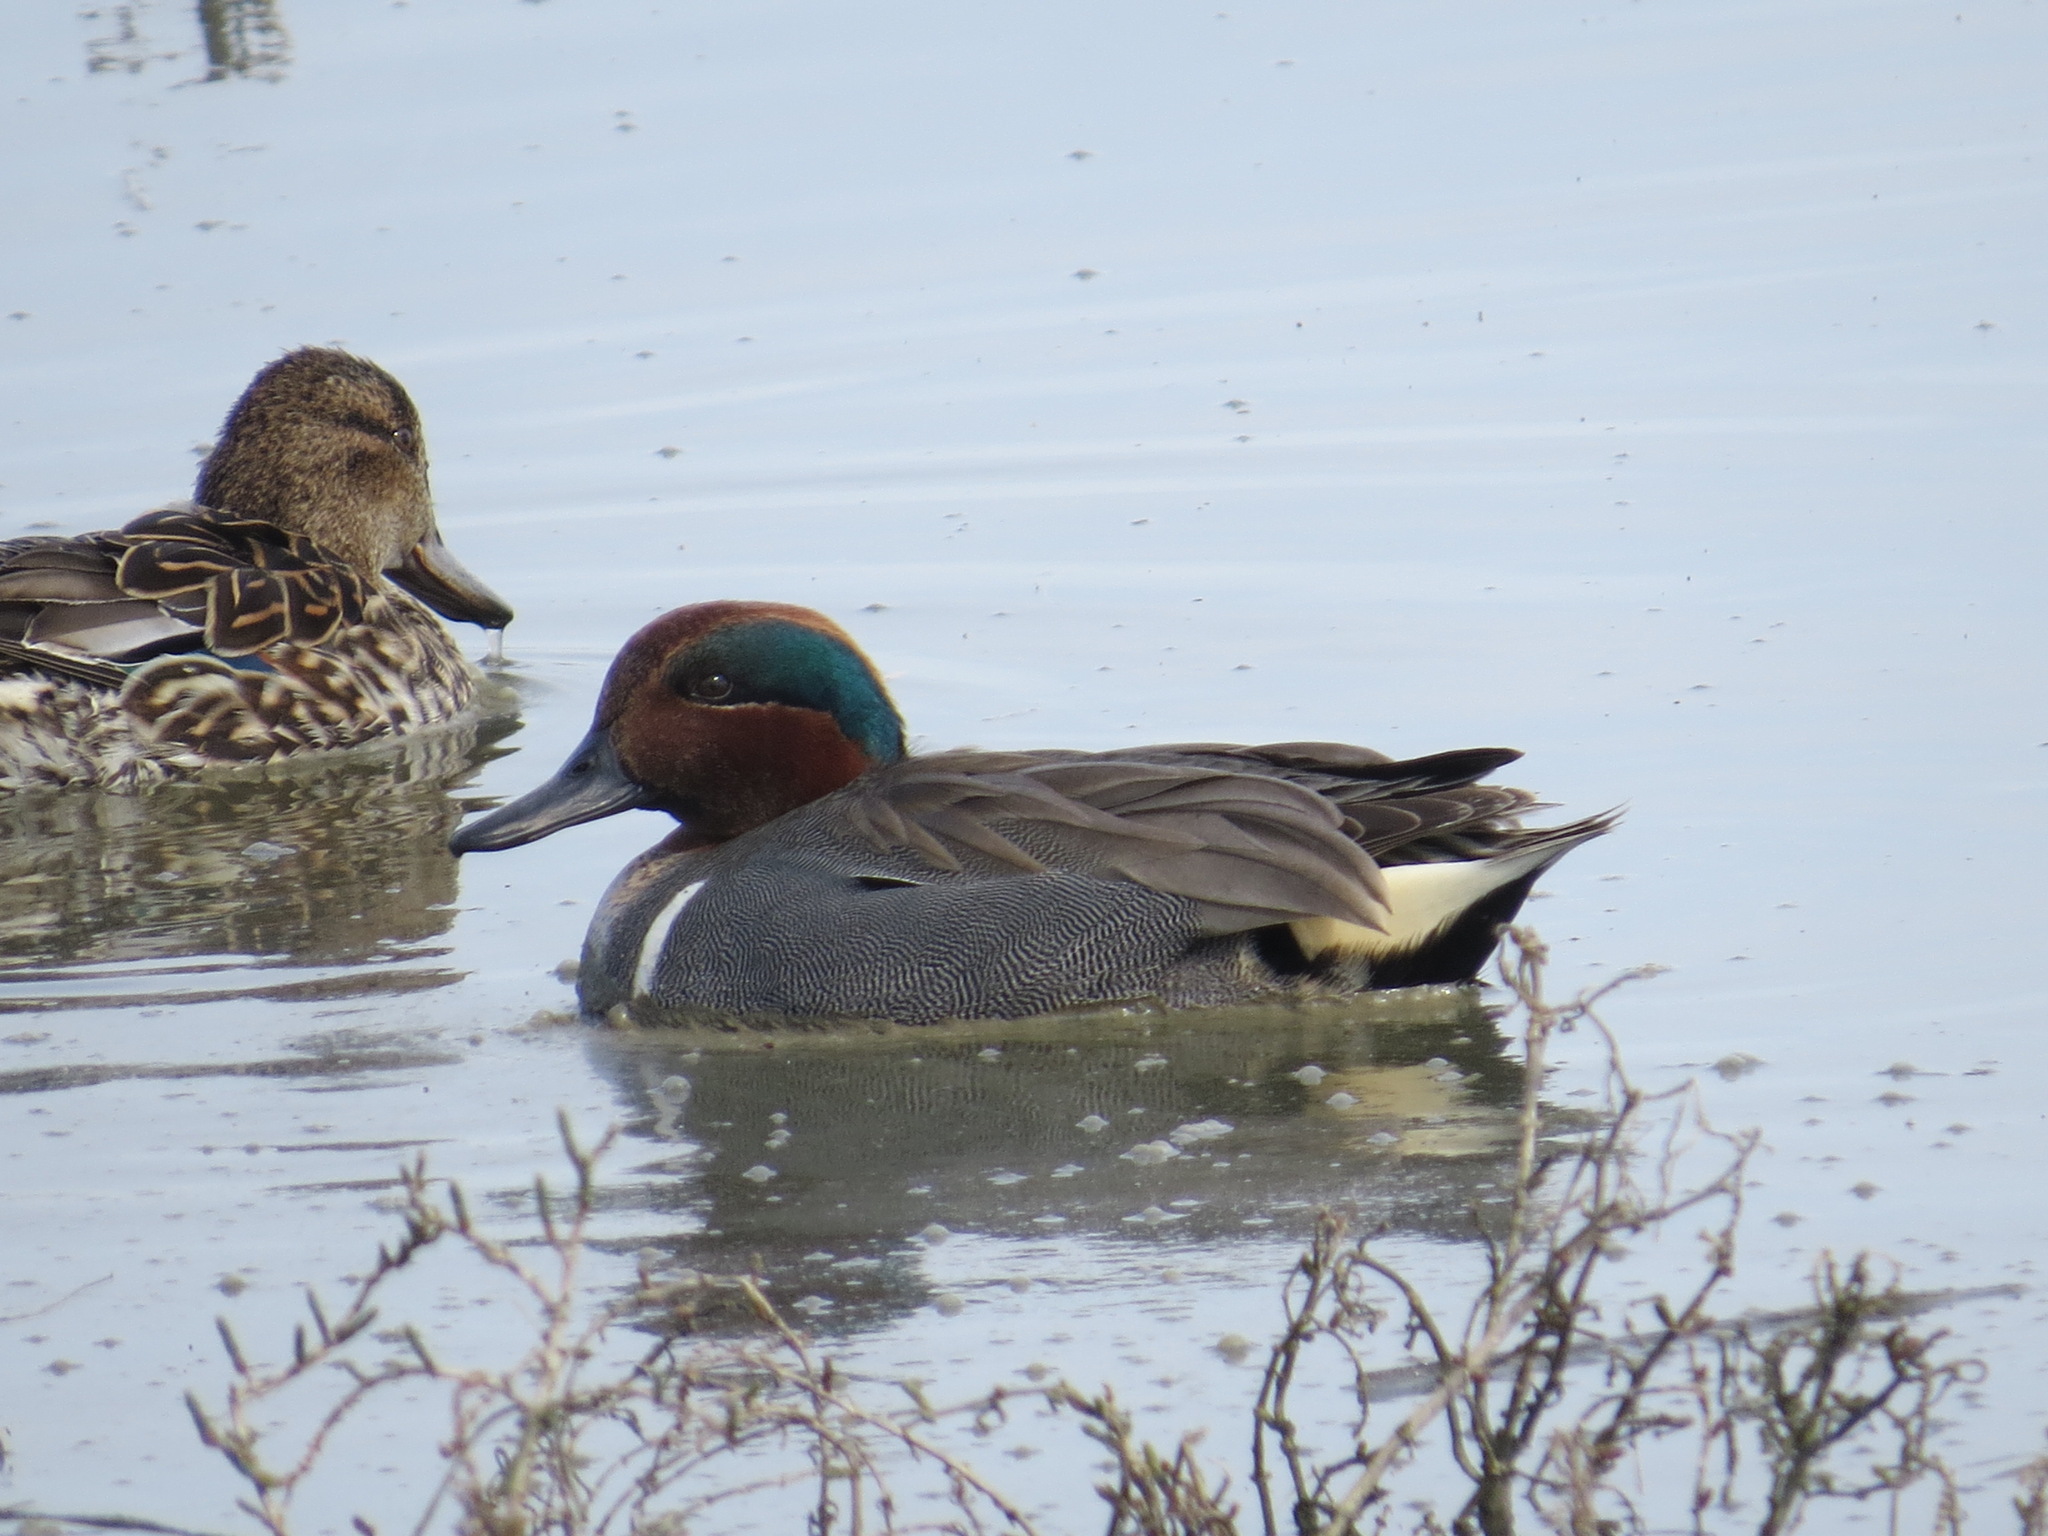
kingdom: Animalia
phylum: Chordata
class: Aves
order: Anseriformes
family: Anatidae
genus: Anas
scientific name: Anas crecca
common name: Eurasian teal
